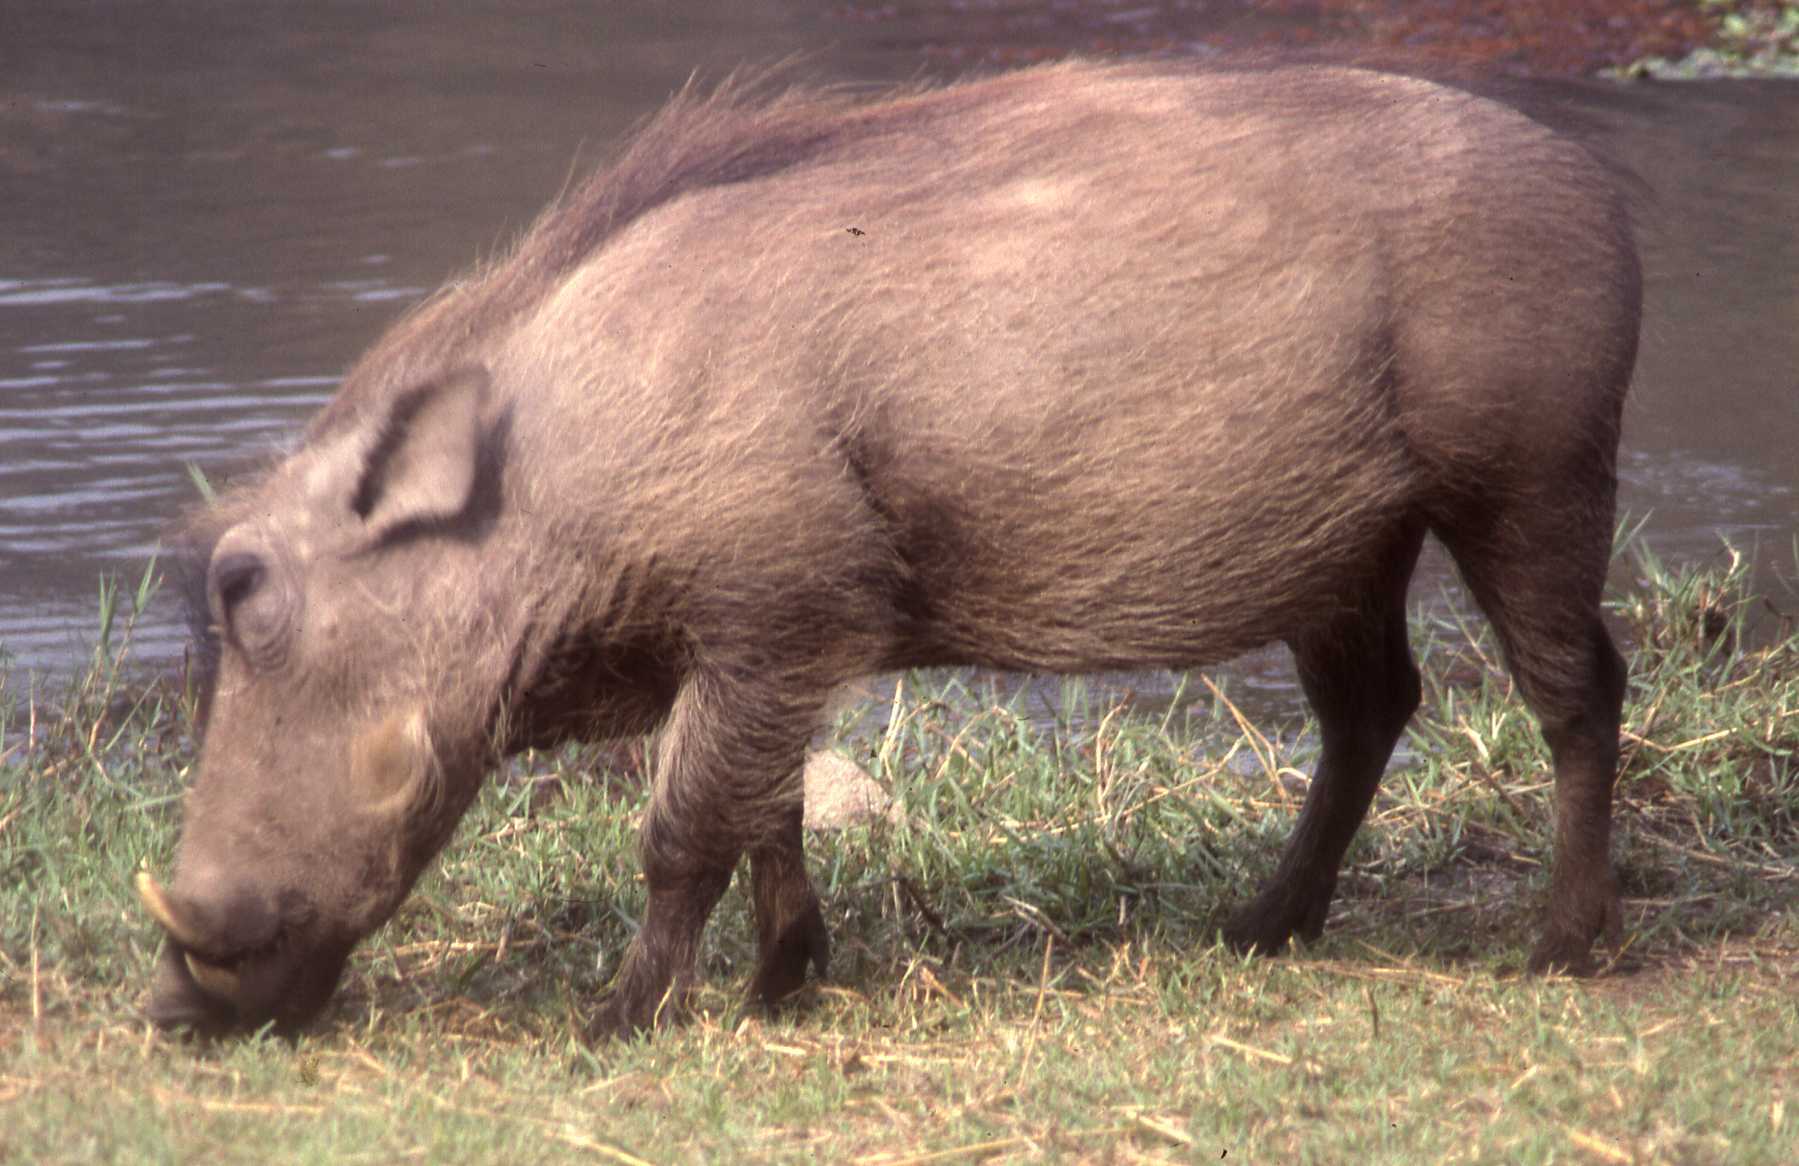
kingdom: Animalia
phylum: Chordata
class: Mammalia
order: Artiodactyla
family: Suidae
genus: Phacochoerus
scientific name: Phacochoerus africanus
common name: Common warthog
